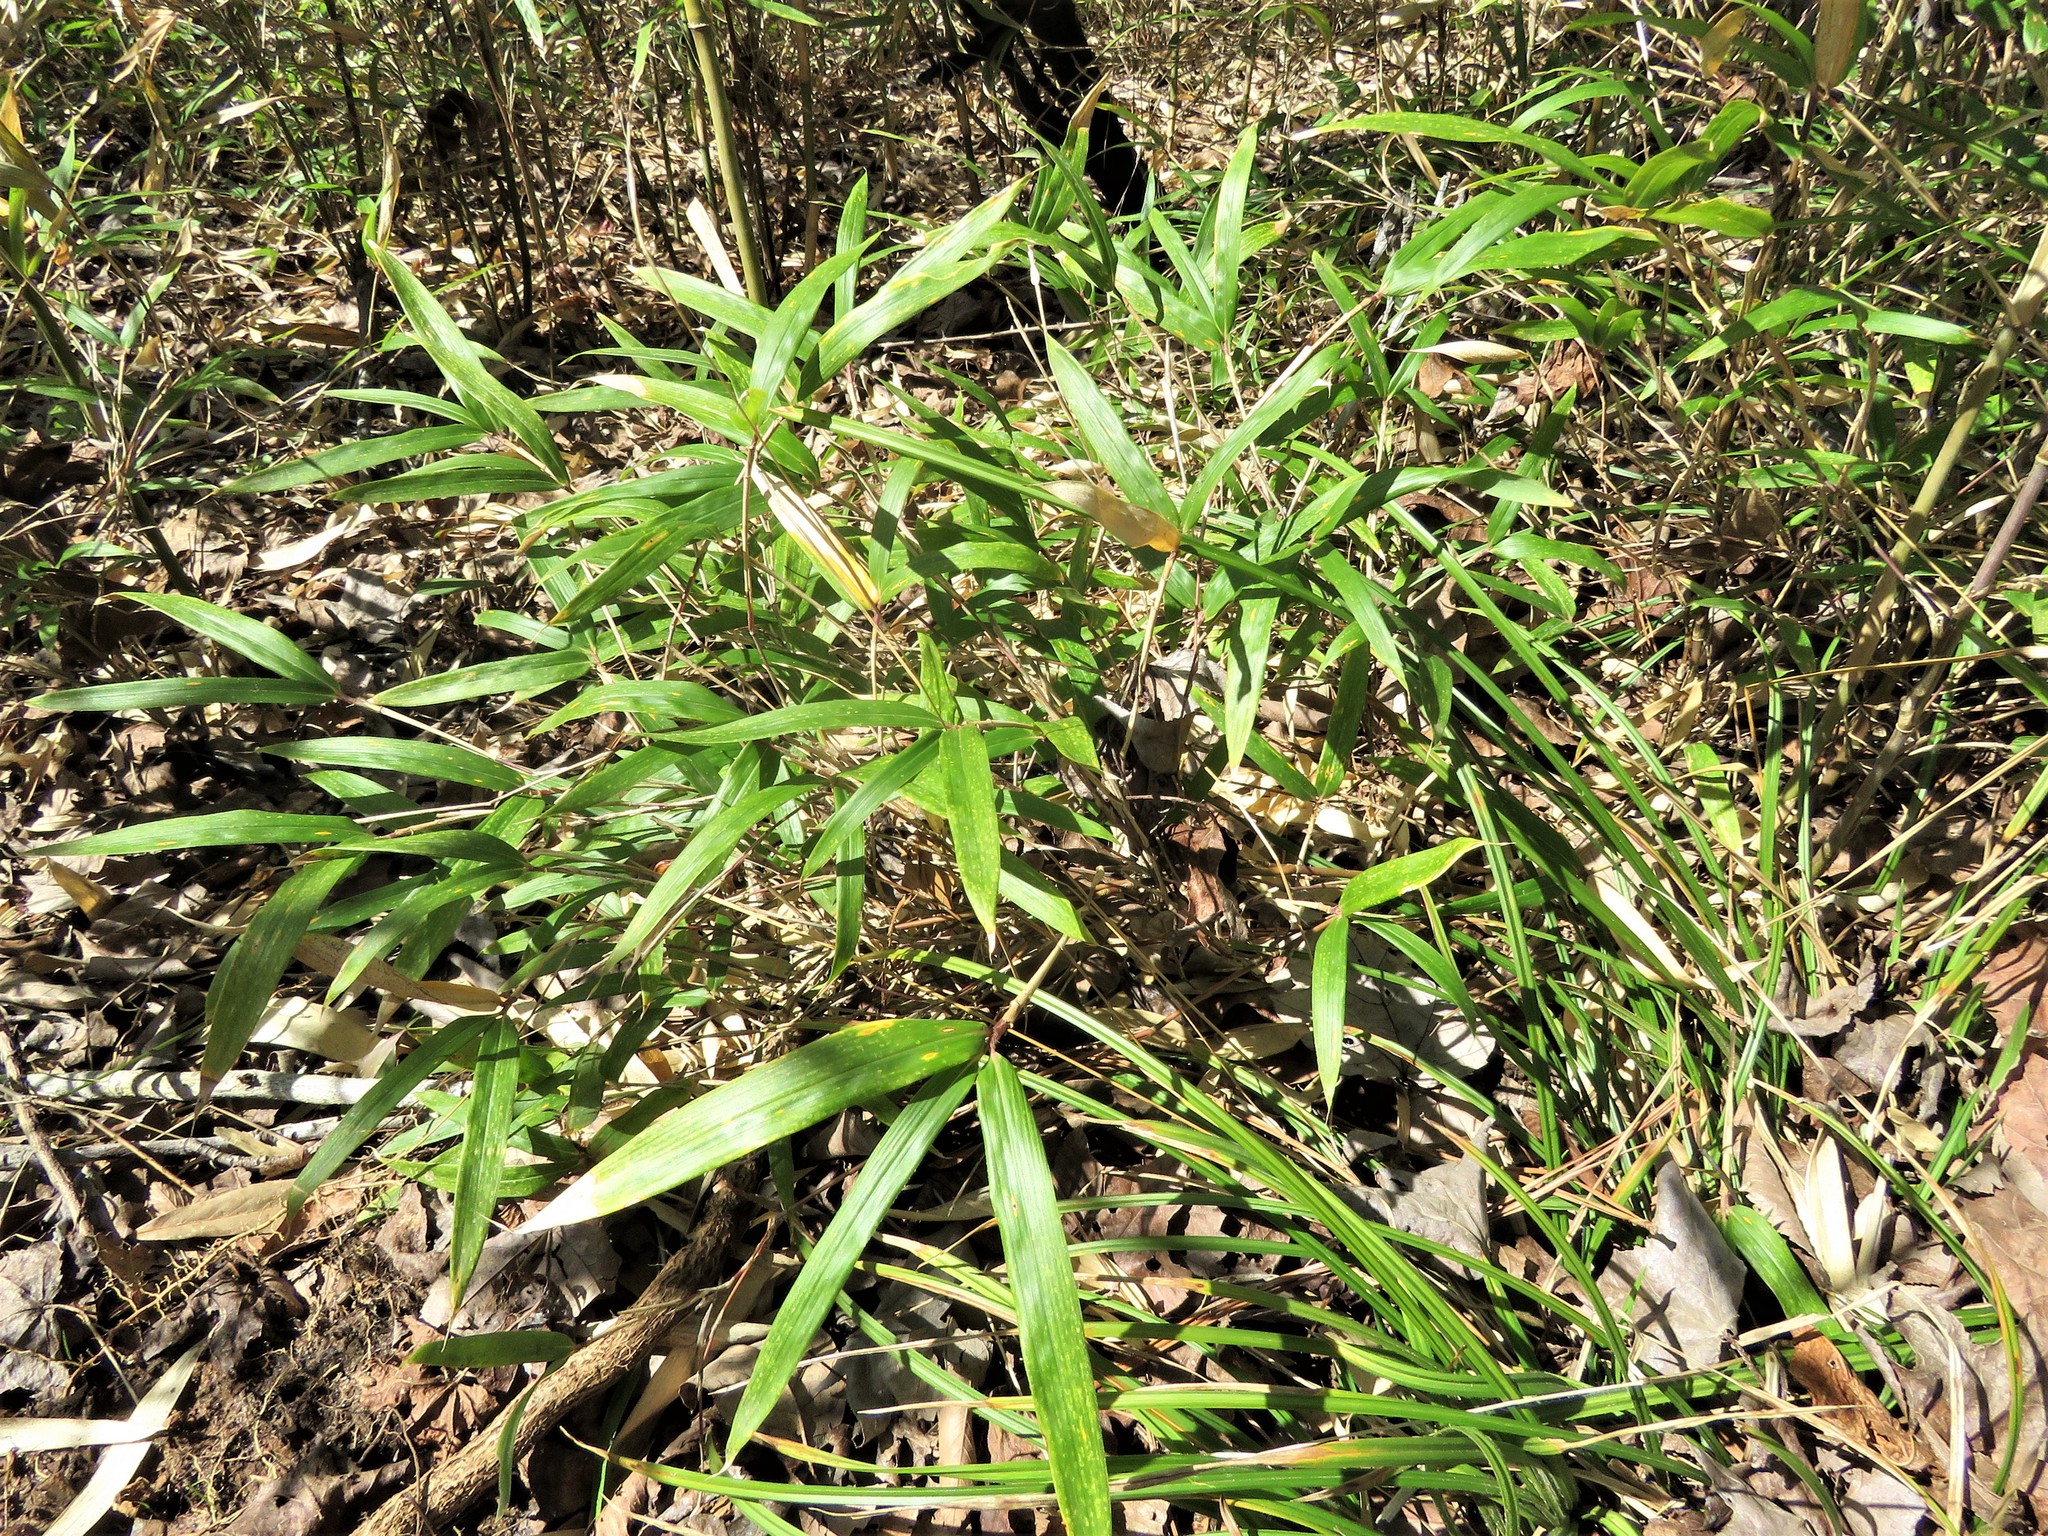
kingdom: Plantae
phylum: Tracheophyta
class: Liliopsida
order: Poales
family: Poaceae
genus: Arundinaria
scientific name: Arundinaria gigantea
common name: Giant cane
